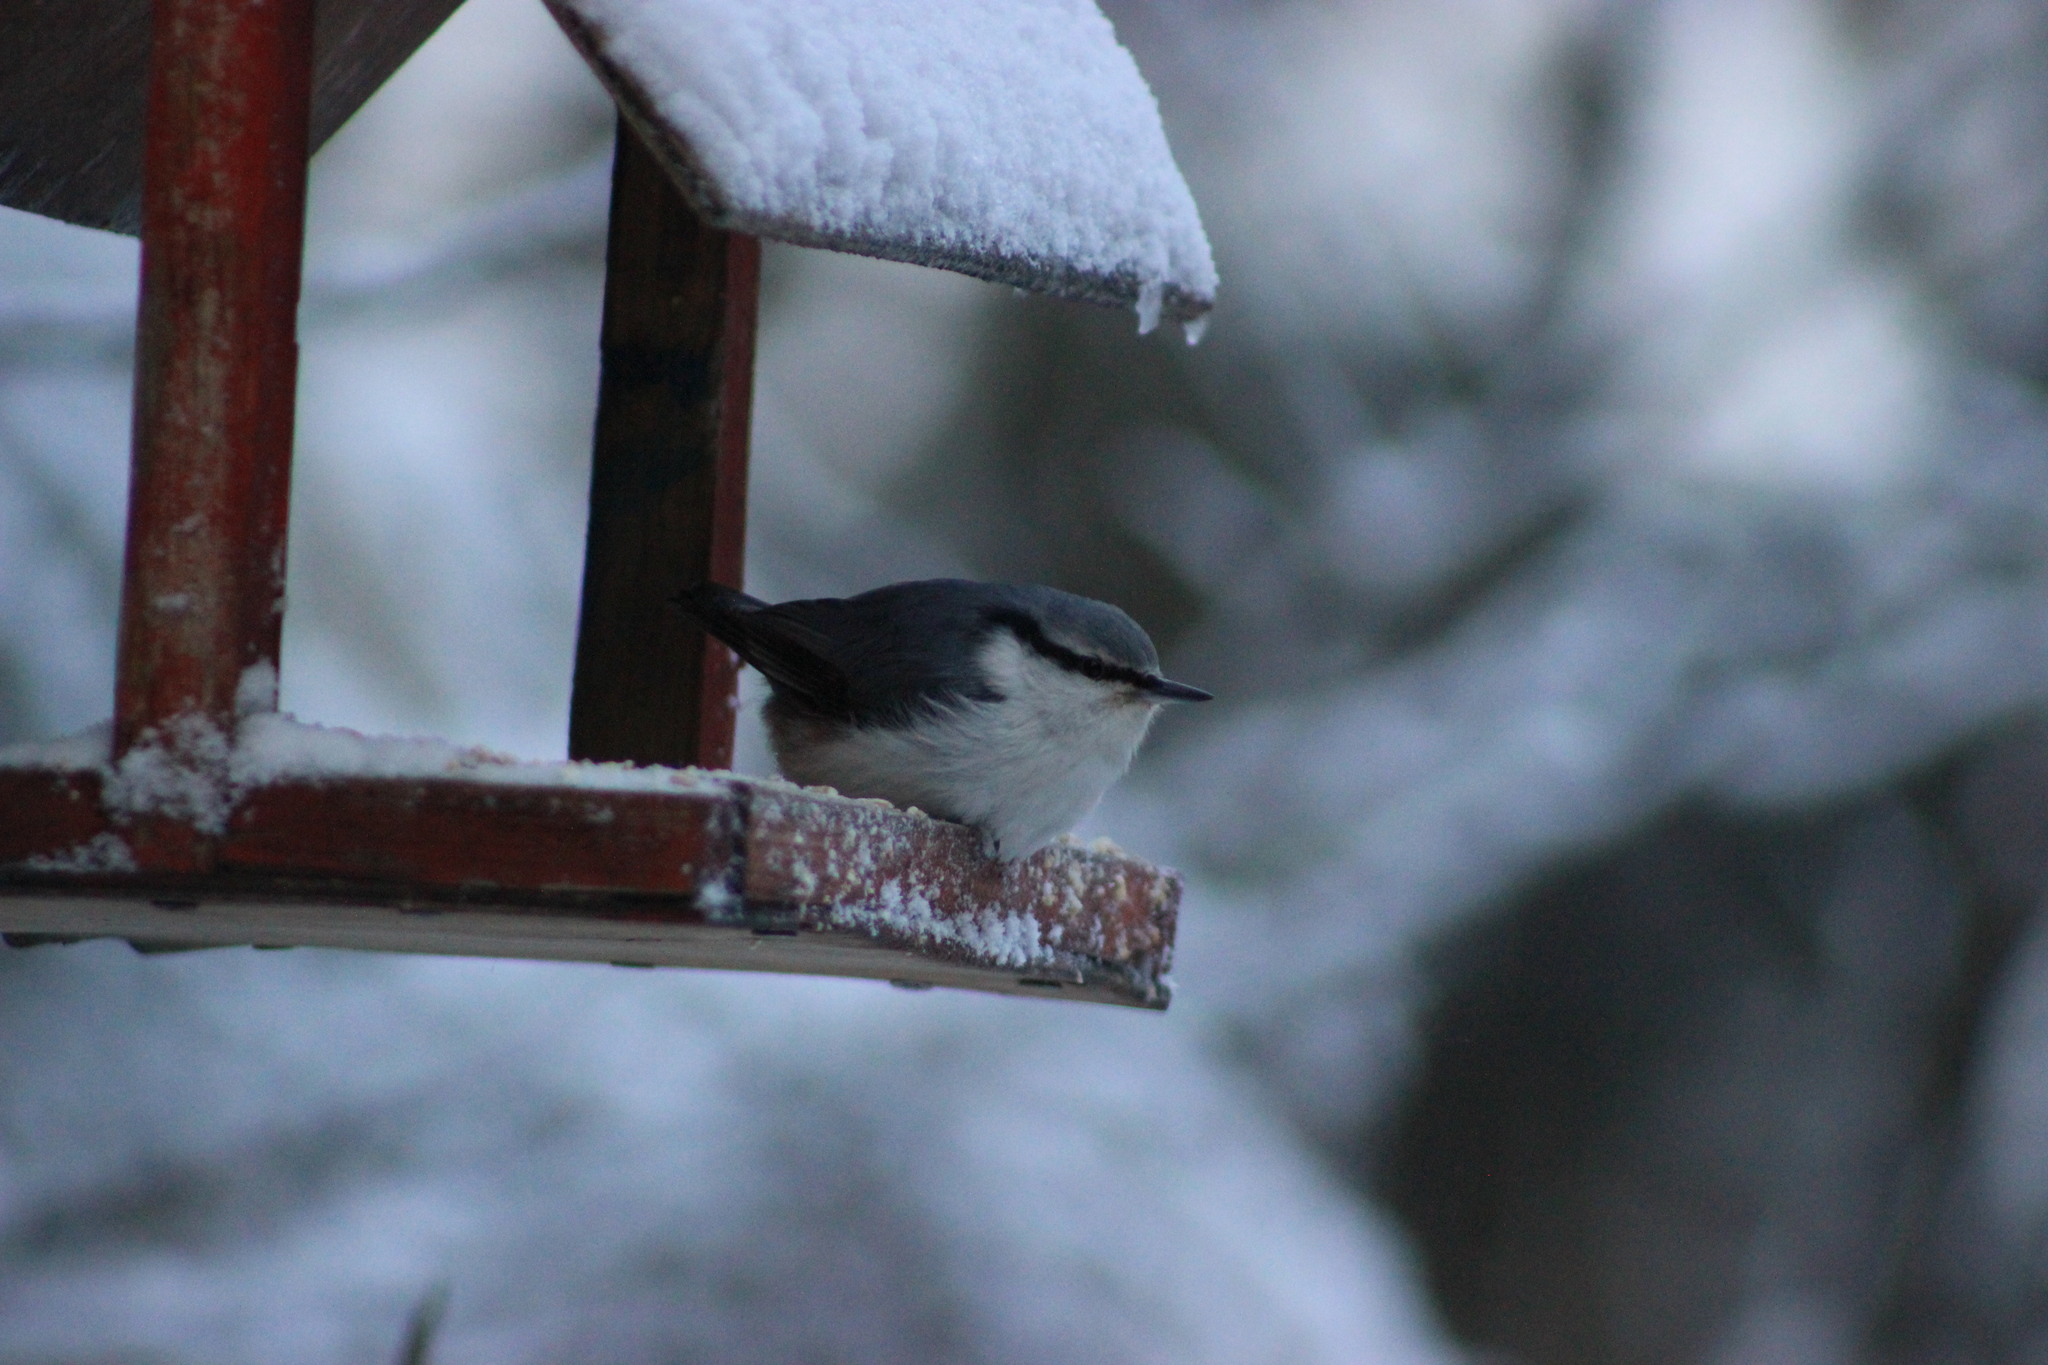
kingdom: Animalia
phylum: Chordata
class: Aves
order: Passeriformes
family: Sittidae
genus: Sitta
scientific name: Sitta europaea
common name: Eurasian nuthatch
